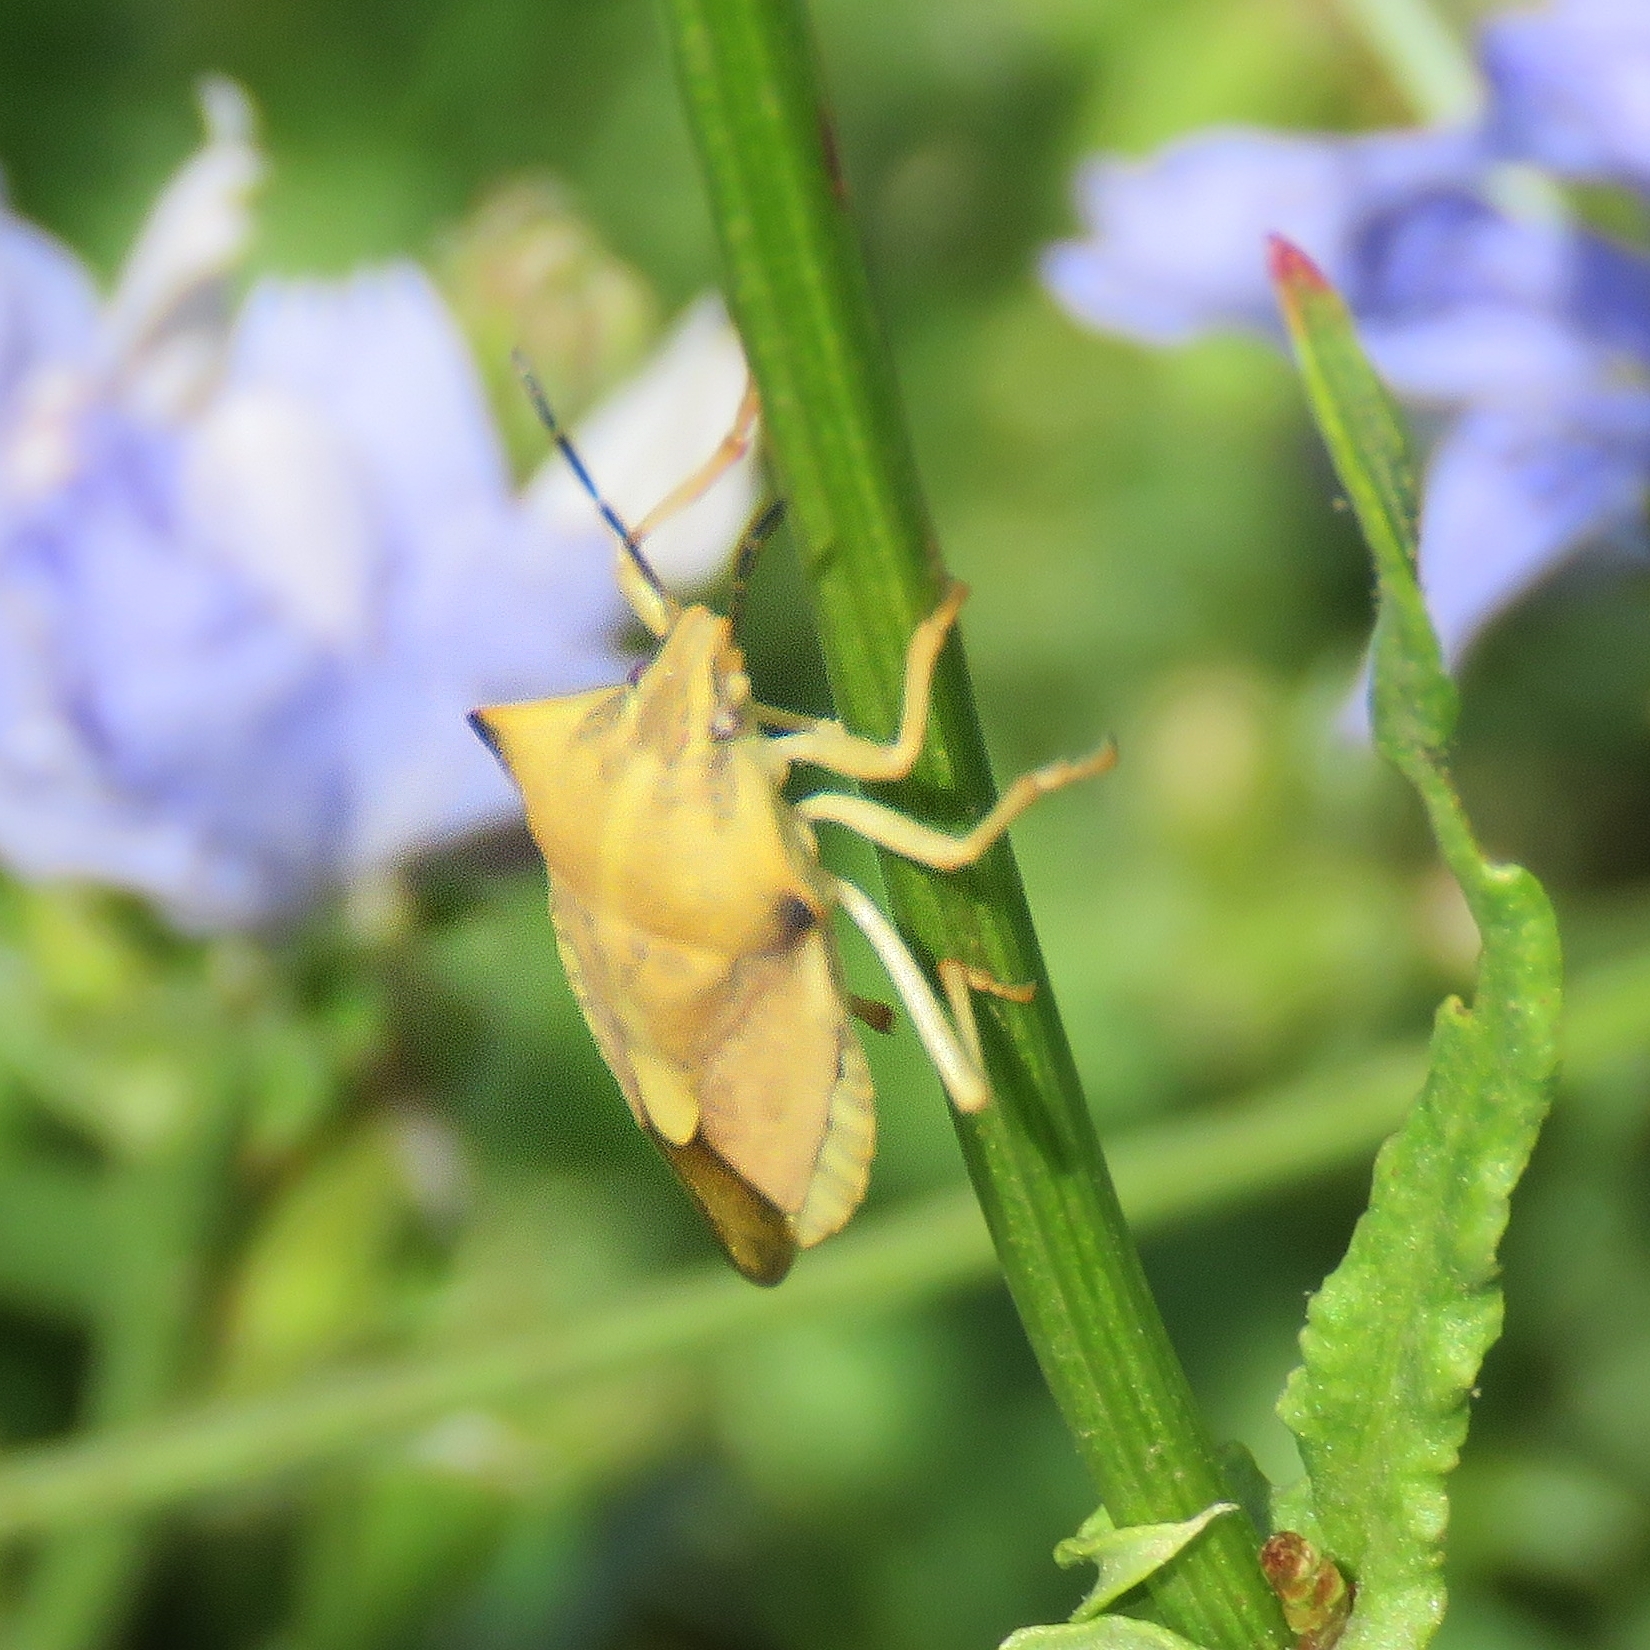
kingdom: Animalia
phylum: Arthropoda
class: Insecta
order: Hemiptera
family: Pentatomidae
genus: Carpocoris
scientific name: Carpocoris fuscispinus
